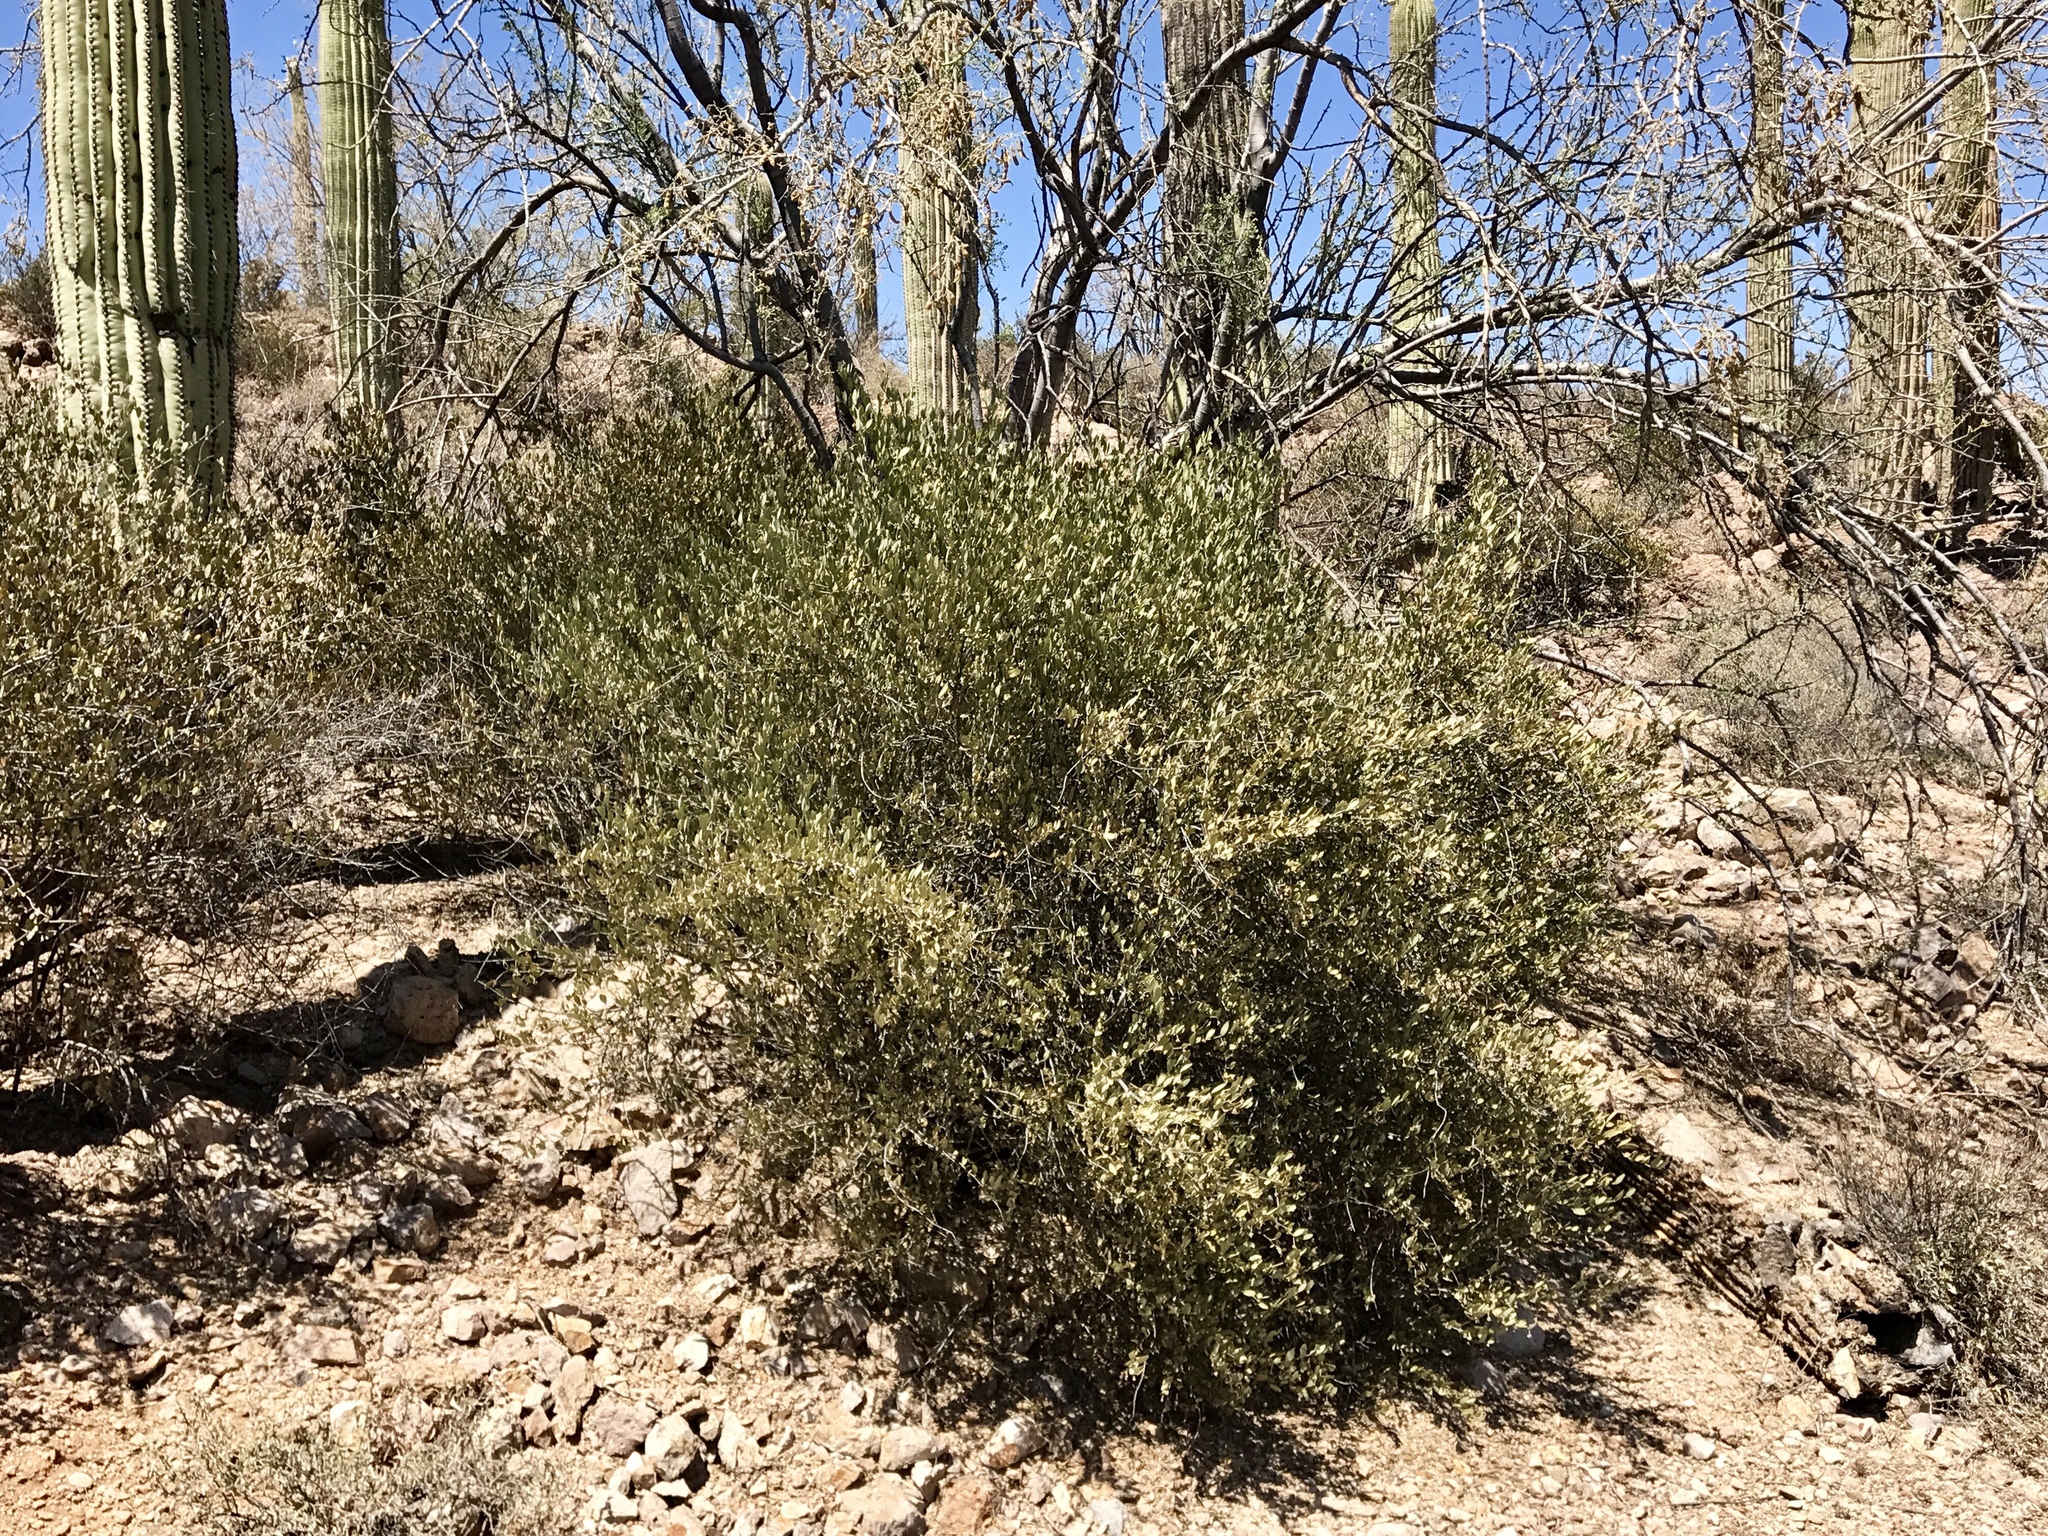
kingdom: Plantae
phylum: Tracheophyta
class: Magnoliopsida
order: Caryophyllales
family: Simmondsiaceae
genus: Simmondsia
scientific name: Simmondsia chinensis
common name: Jojoba
